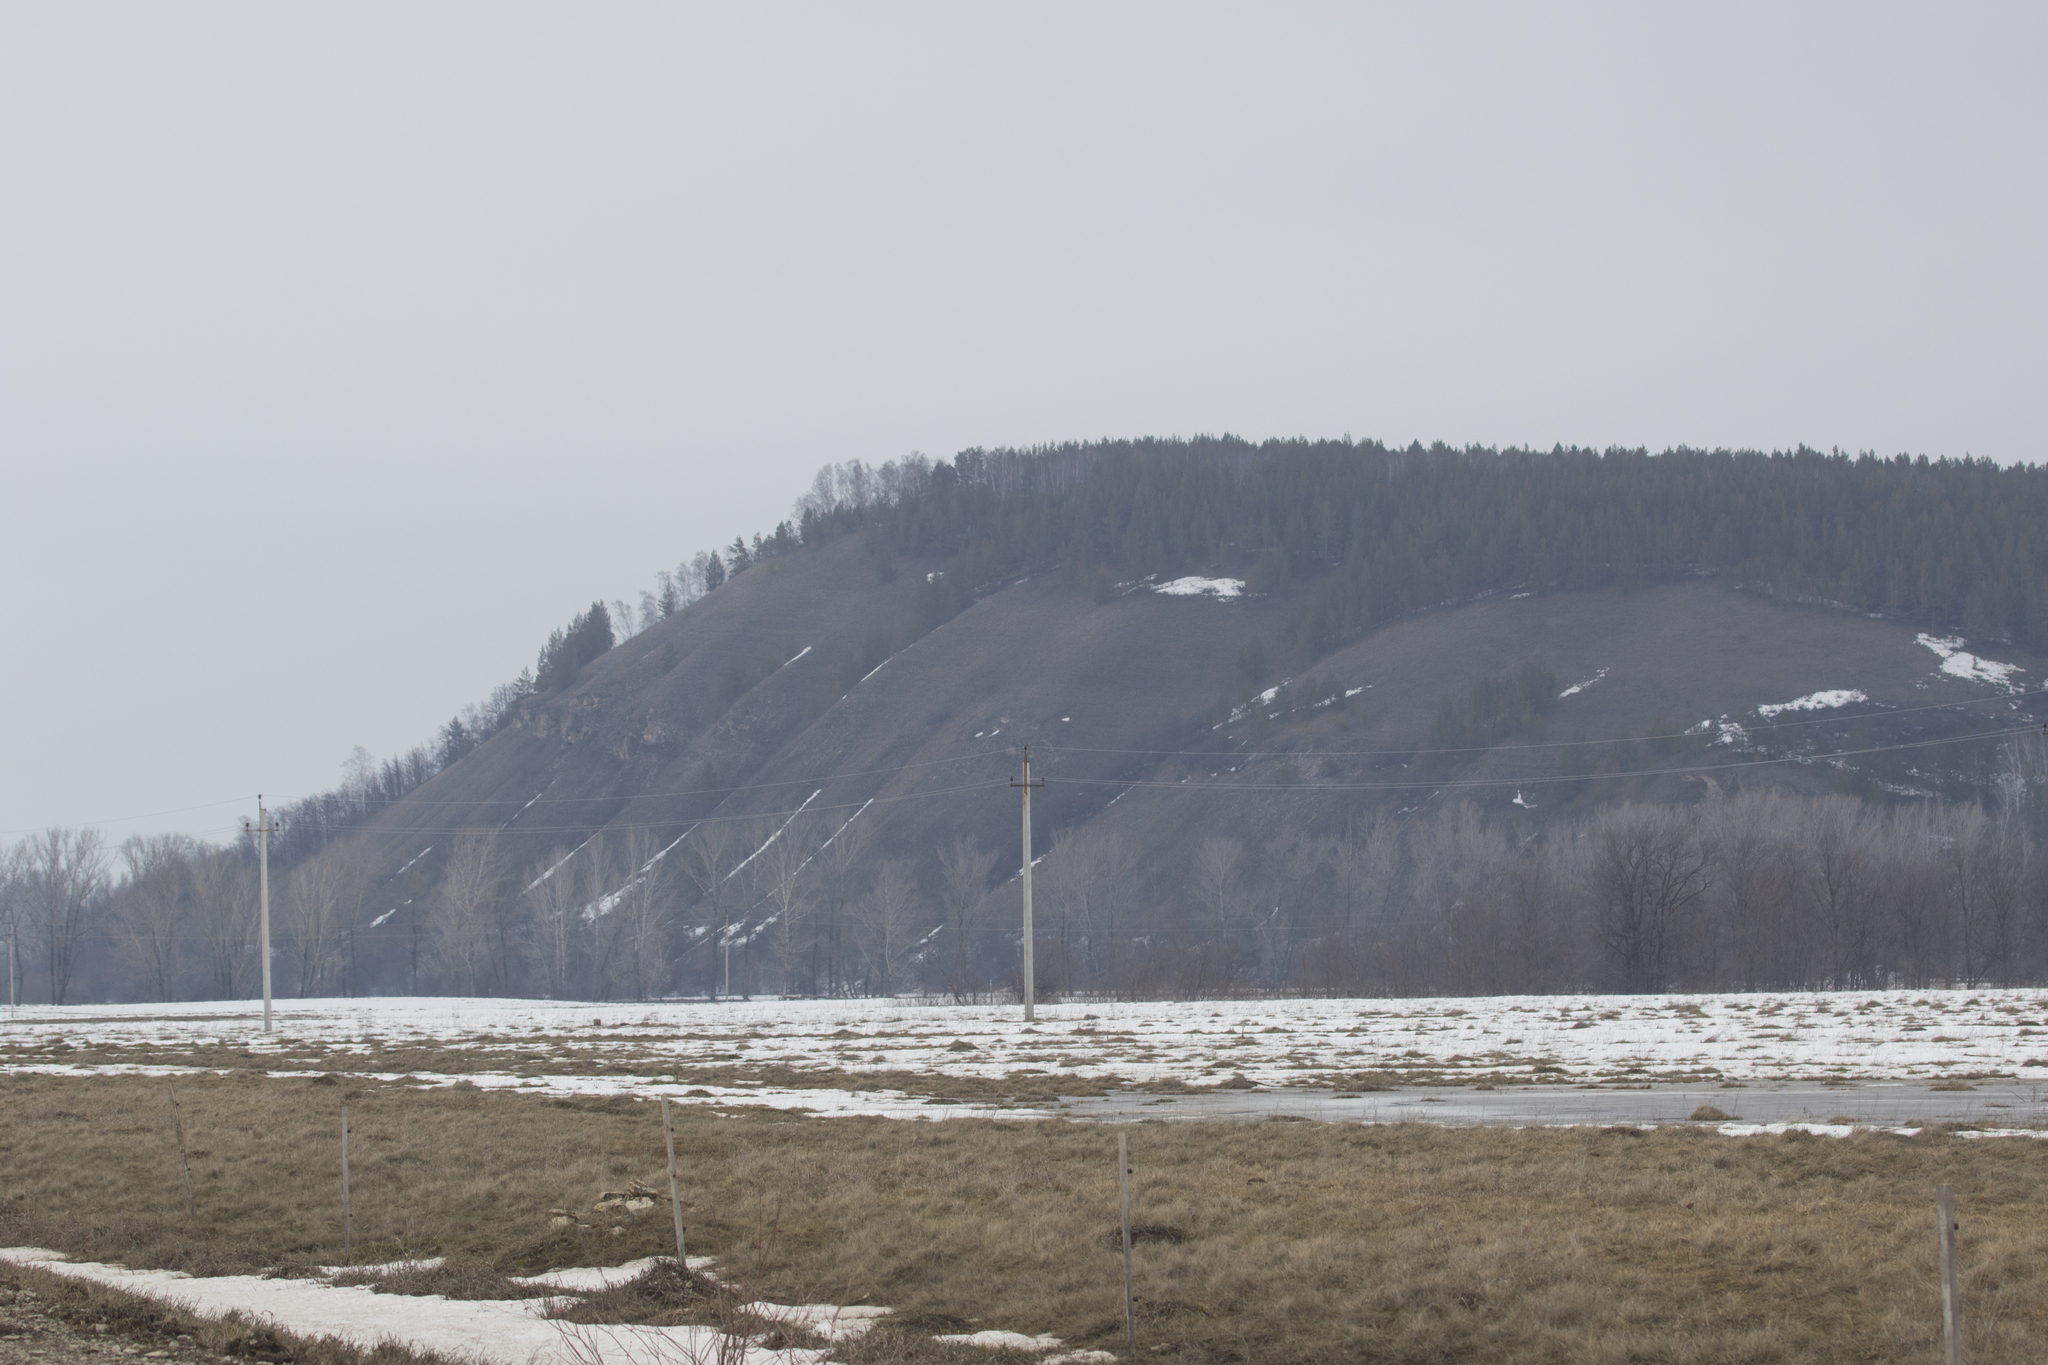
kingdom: Plantae
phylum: Tracheophyta
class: Pinopsida
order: Pinales
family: Pinaceae
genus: Pinus
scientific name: Pinus sylvestris
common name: Scots pine
